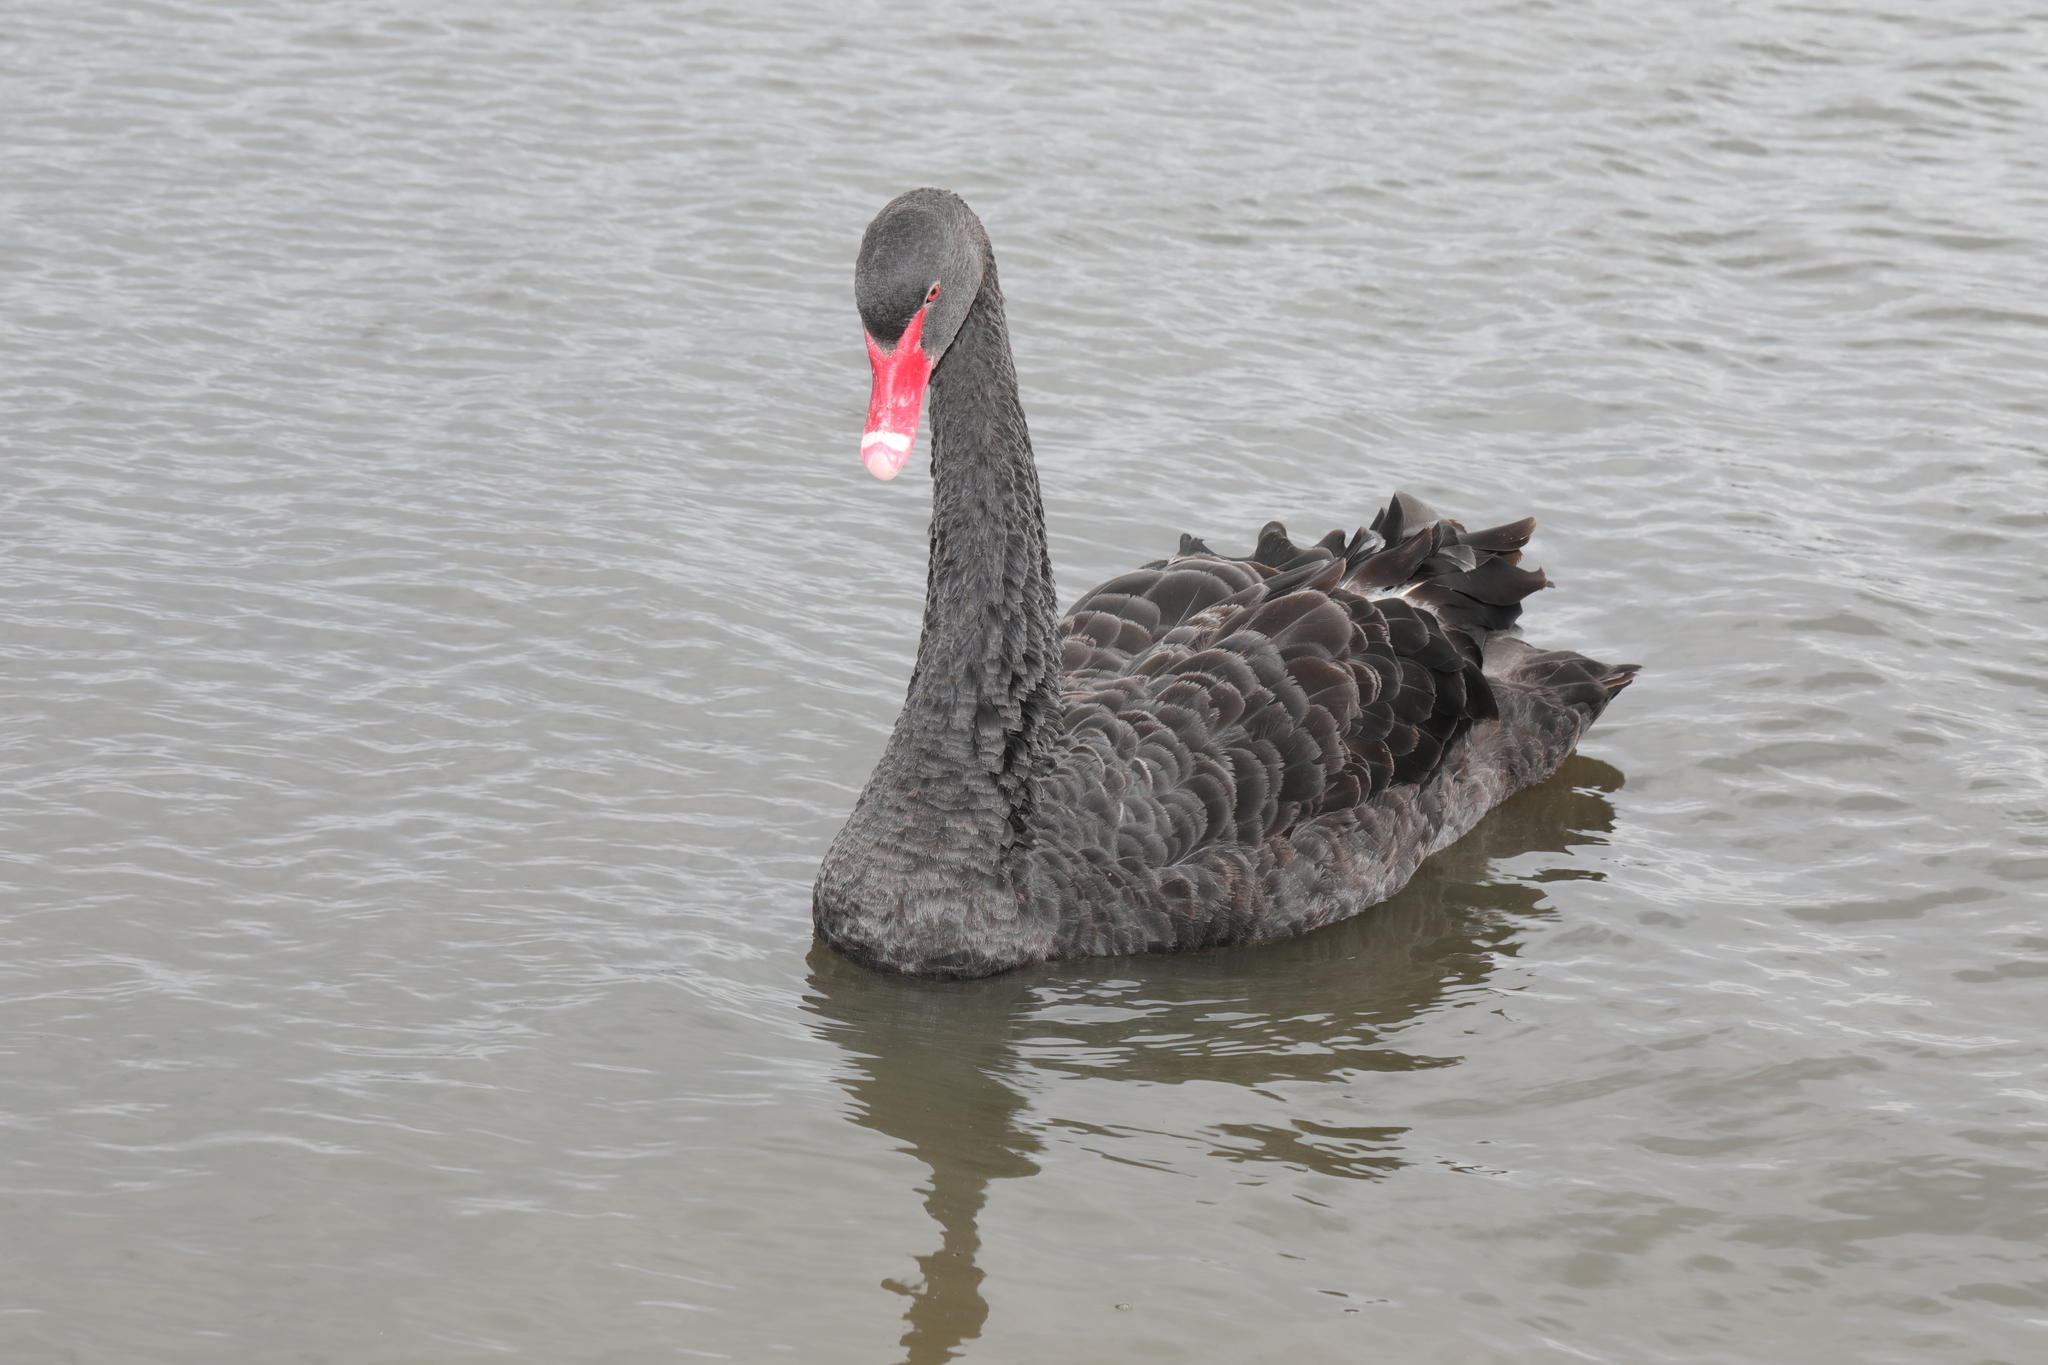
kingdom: Animalia
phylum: Chordata
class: Aves
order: Anseriformes
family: Anatidae
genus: Cygnus
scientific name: Cygnus atratus
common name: Black swan
